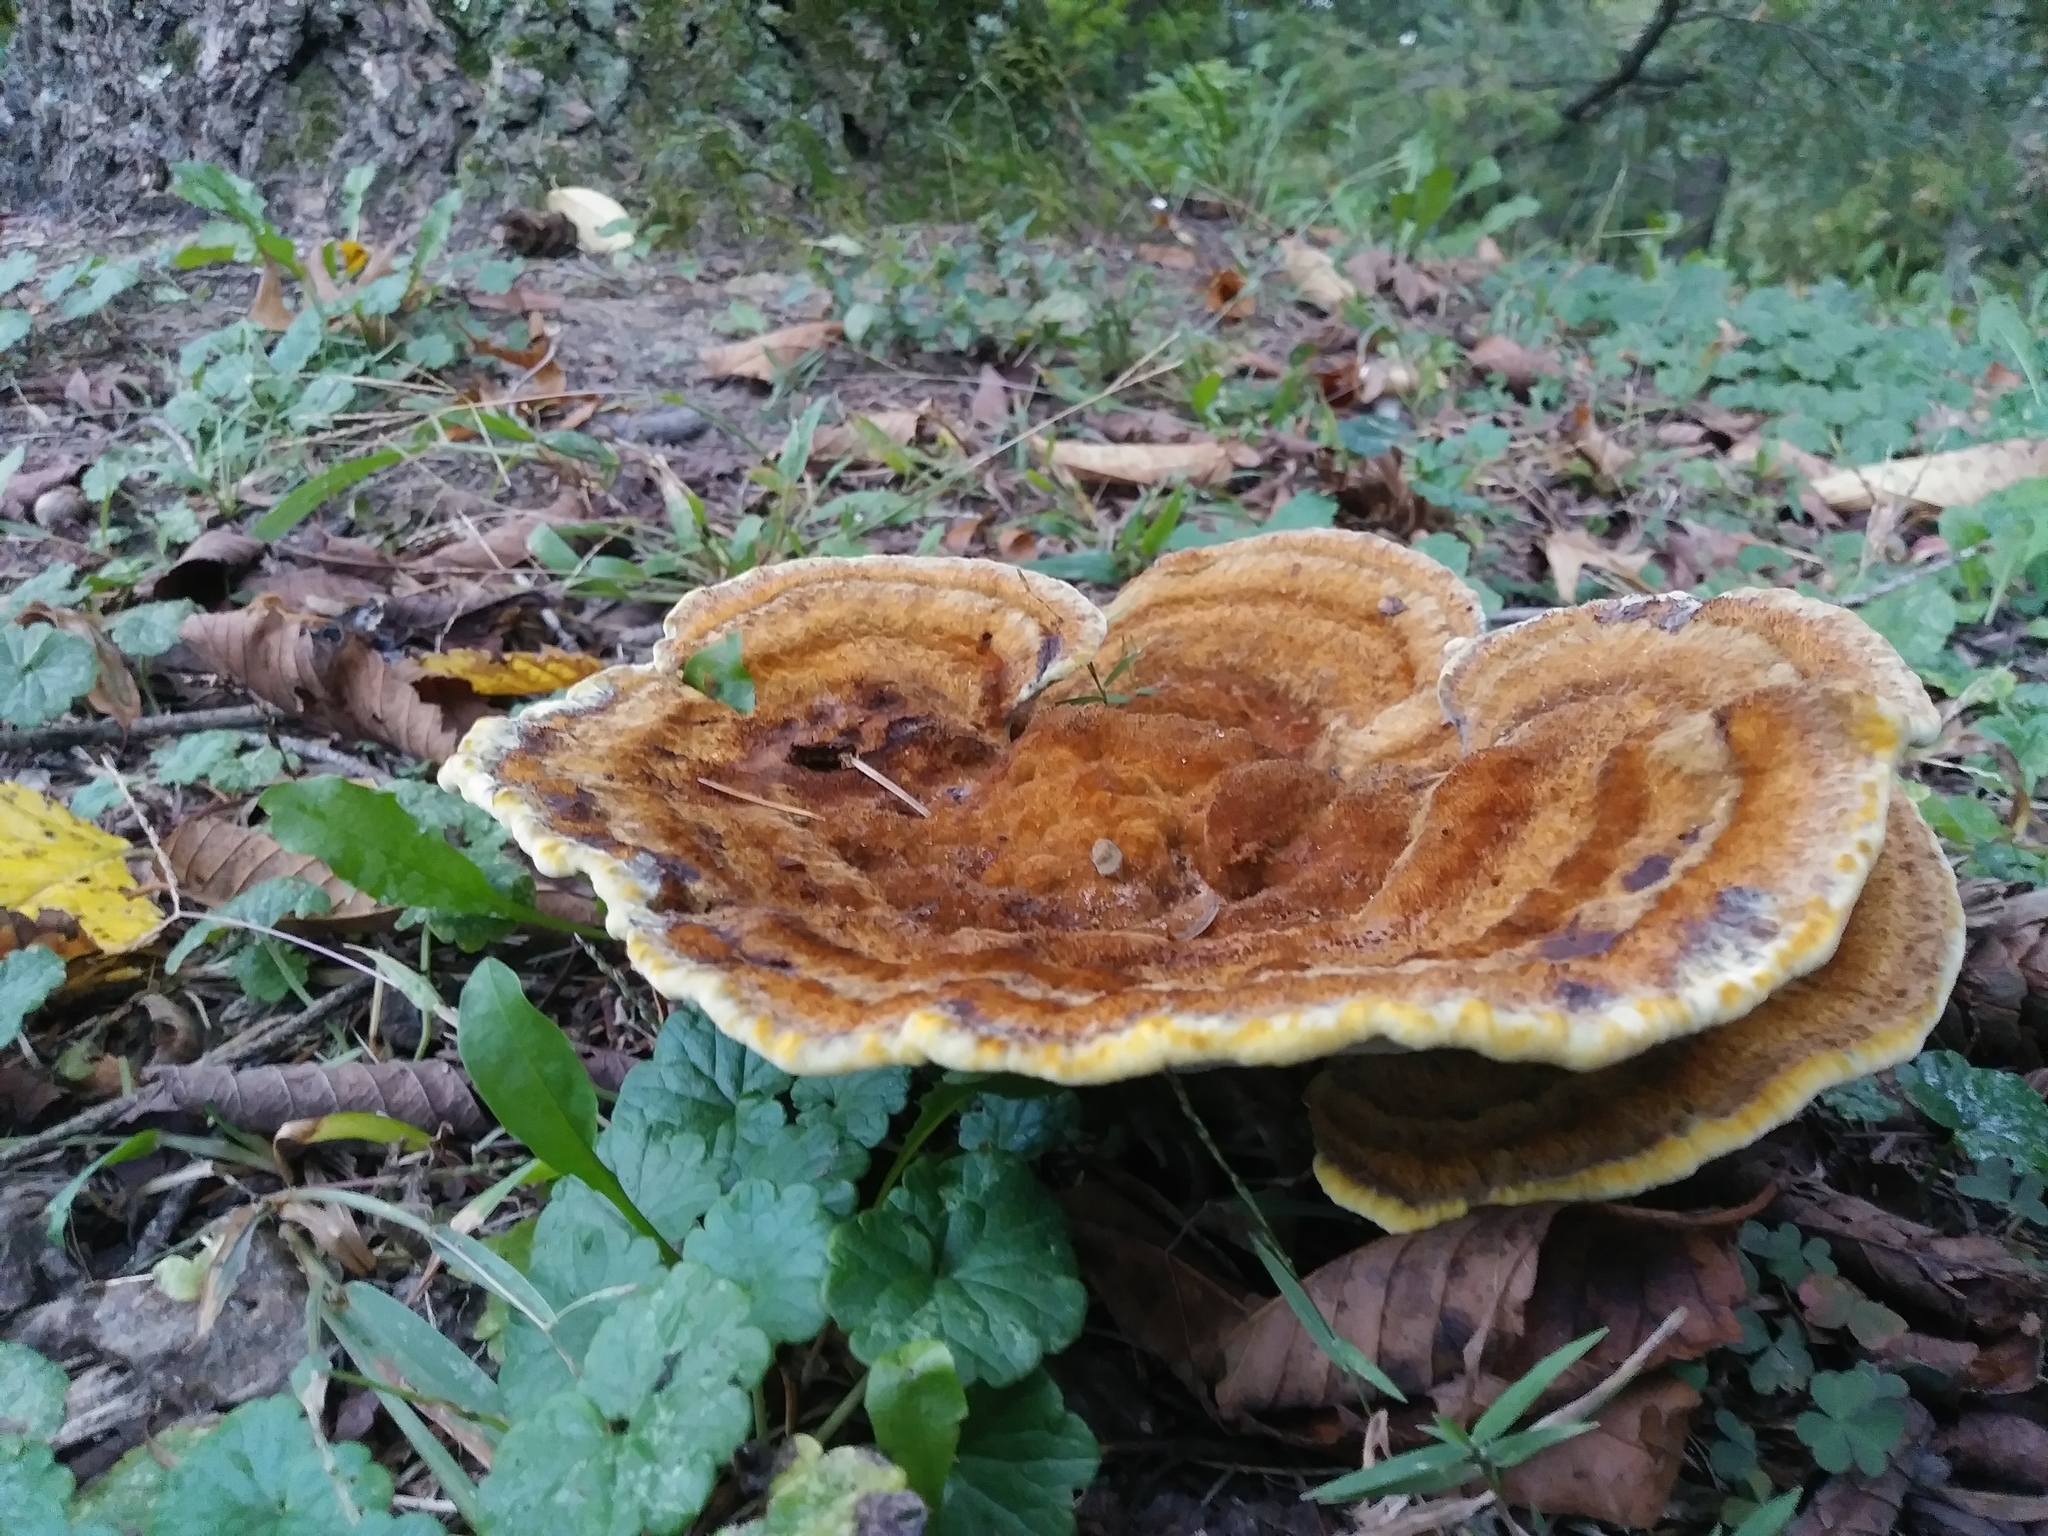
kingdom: Fungi
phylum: Basidiomycota
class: Agaricomycetes
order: Polyporales
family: Laetiporaceae
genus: Phaeolus
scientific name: Phaeolus schweinitzii
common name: Dyer's mazegill
